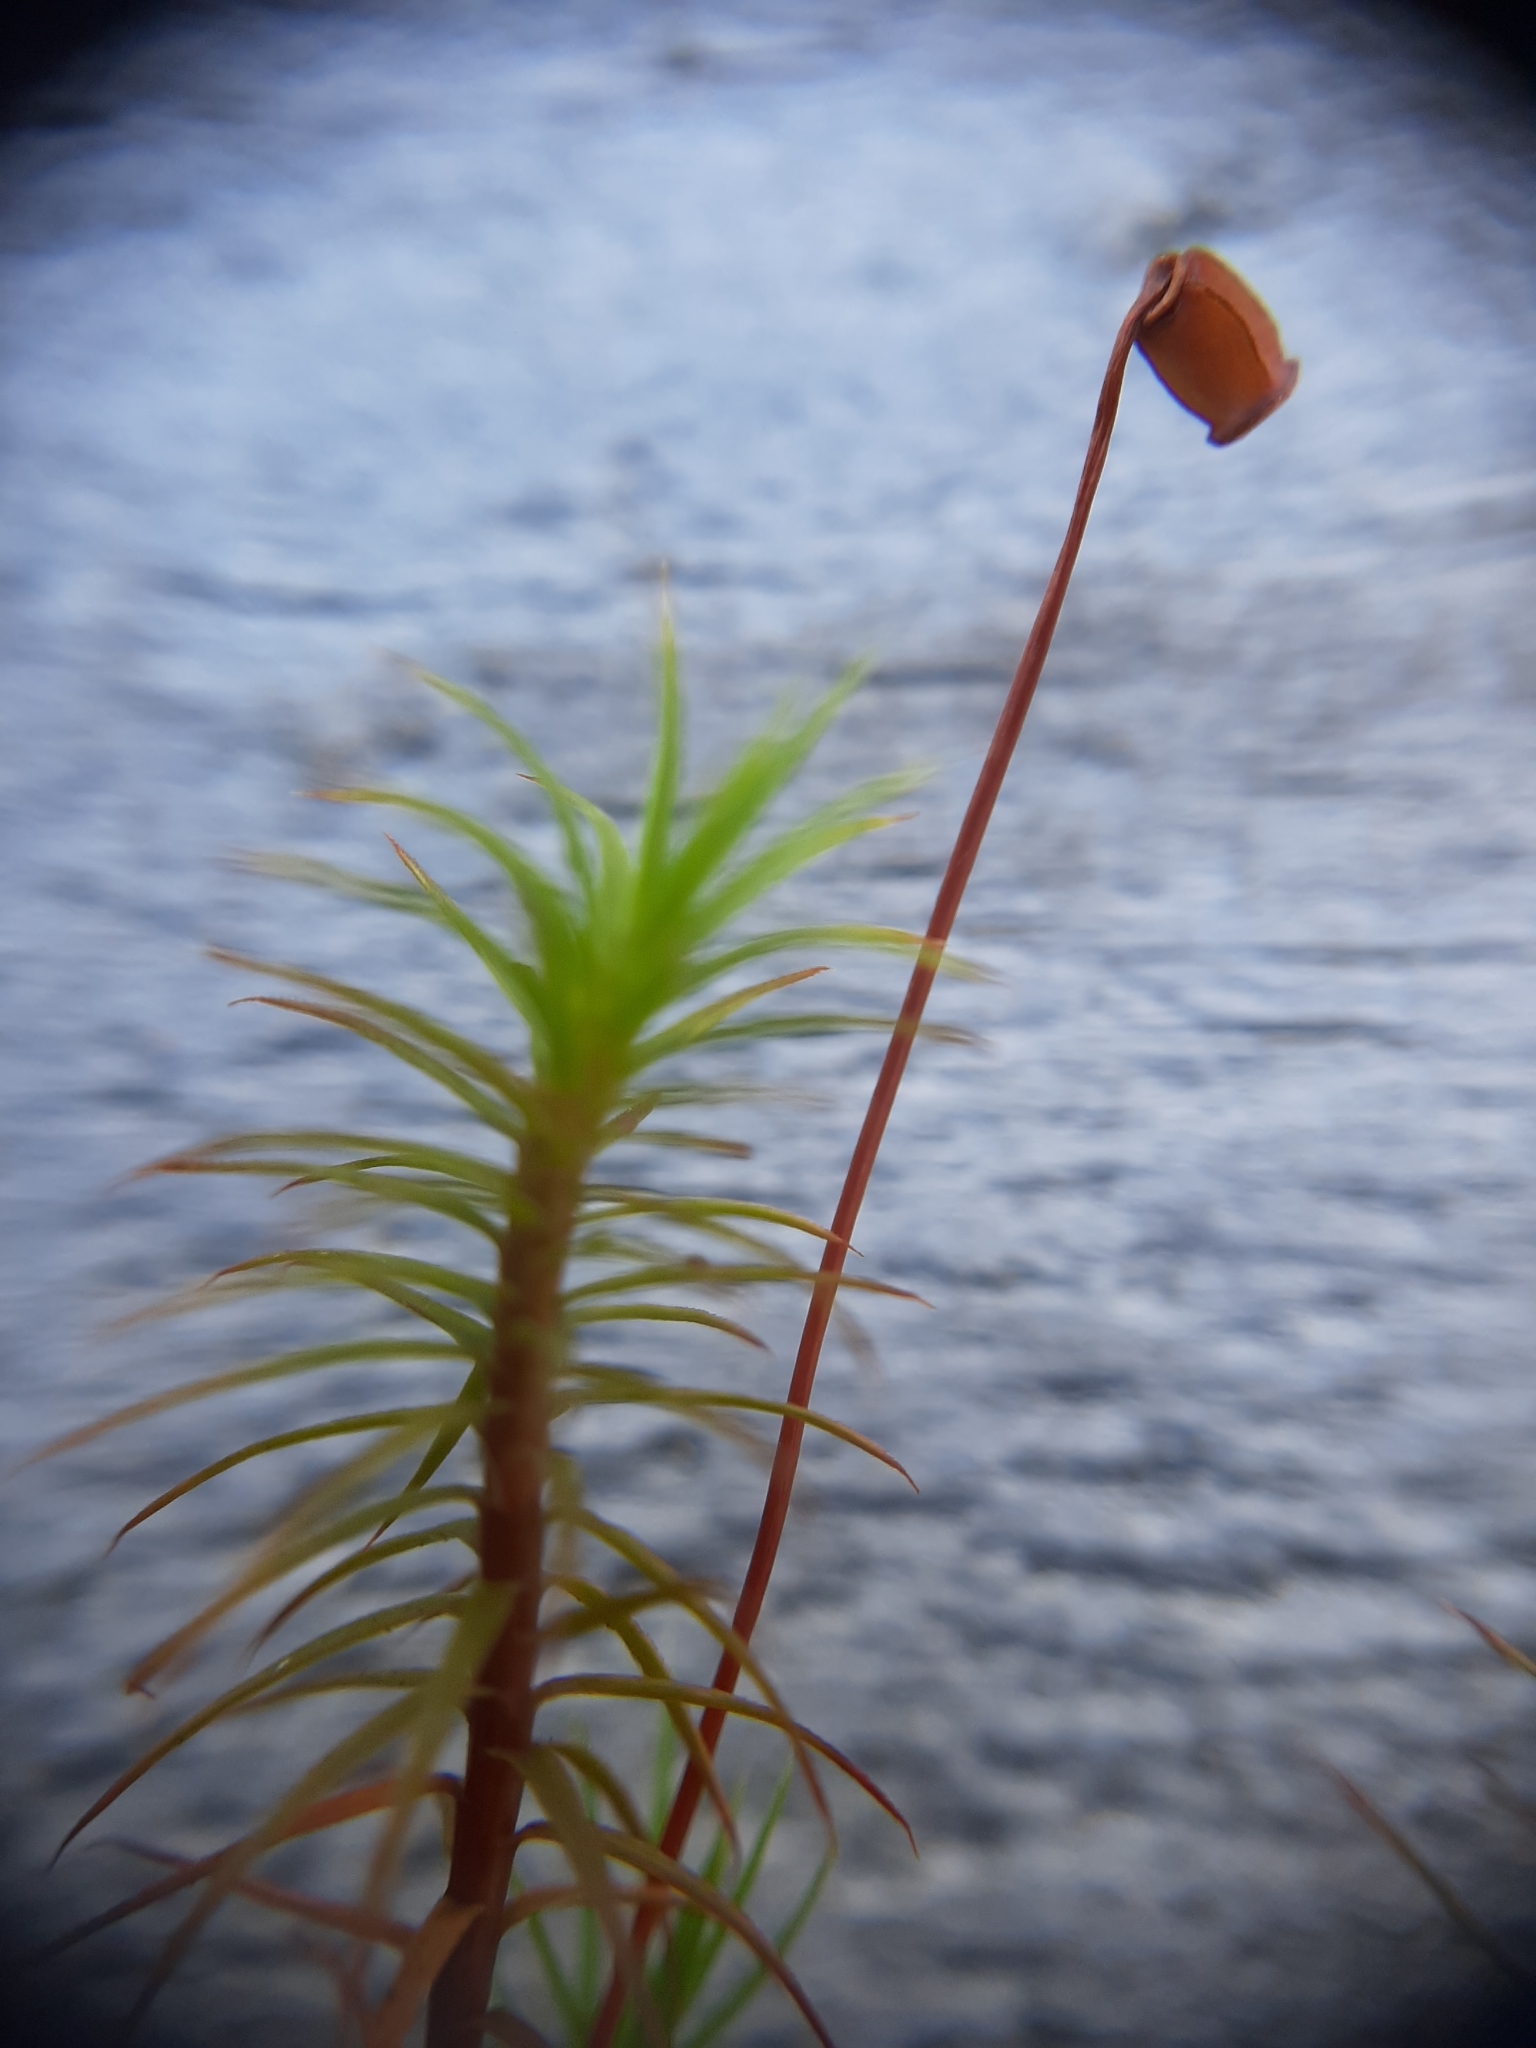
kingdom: Plantae
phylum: Bryophyta
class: Polytrichopsida
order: Polytrichales
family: Polytrichaceae
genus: Polytrichum
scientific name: Polytrichum juniperinum
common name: Juniper haircap moss
